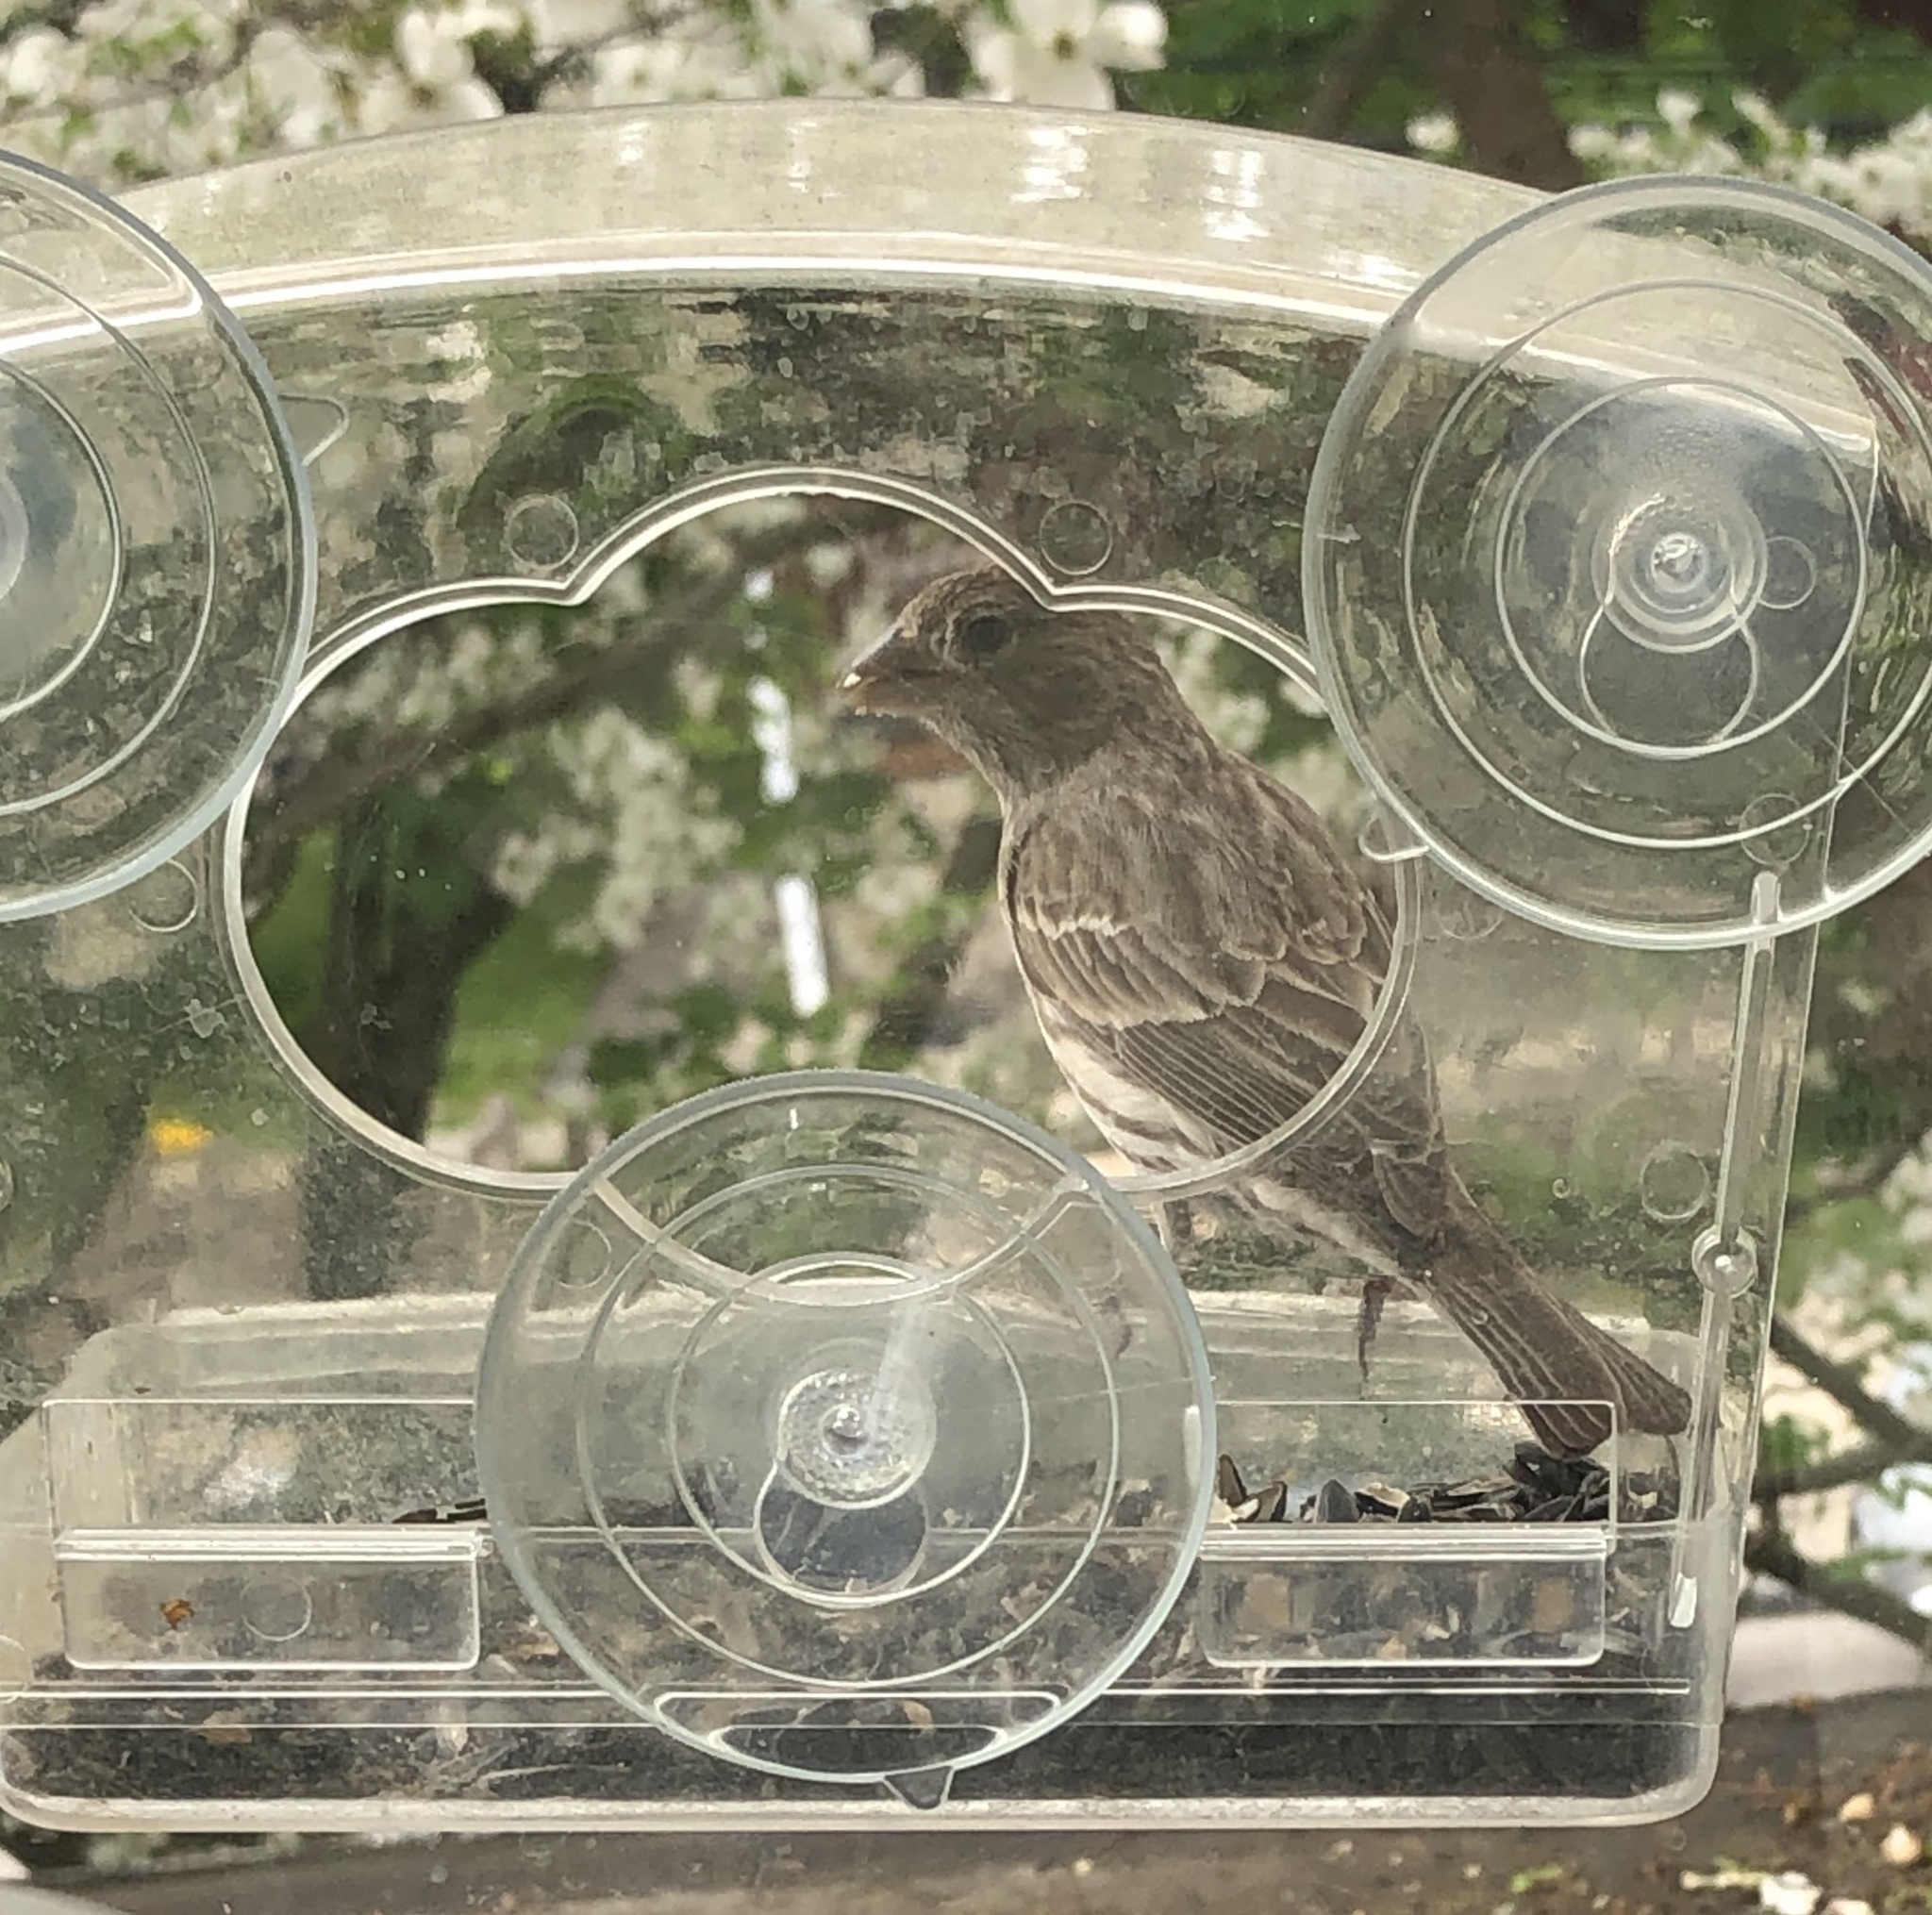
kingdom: Animalia
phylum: Chordata
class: Aves
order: Passeriformes
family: Fringillidae
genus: Haemorhous
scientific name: Haemorhous mexicanus
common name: House finch
